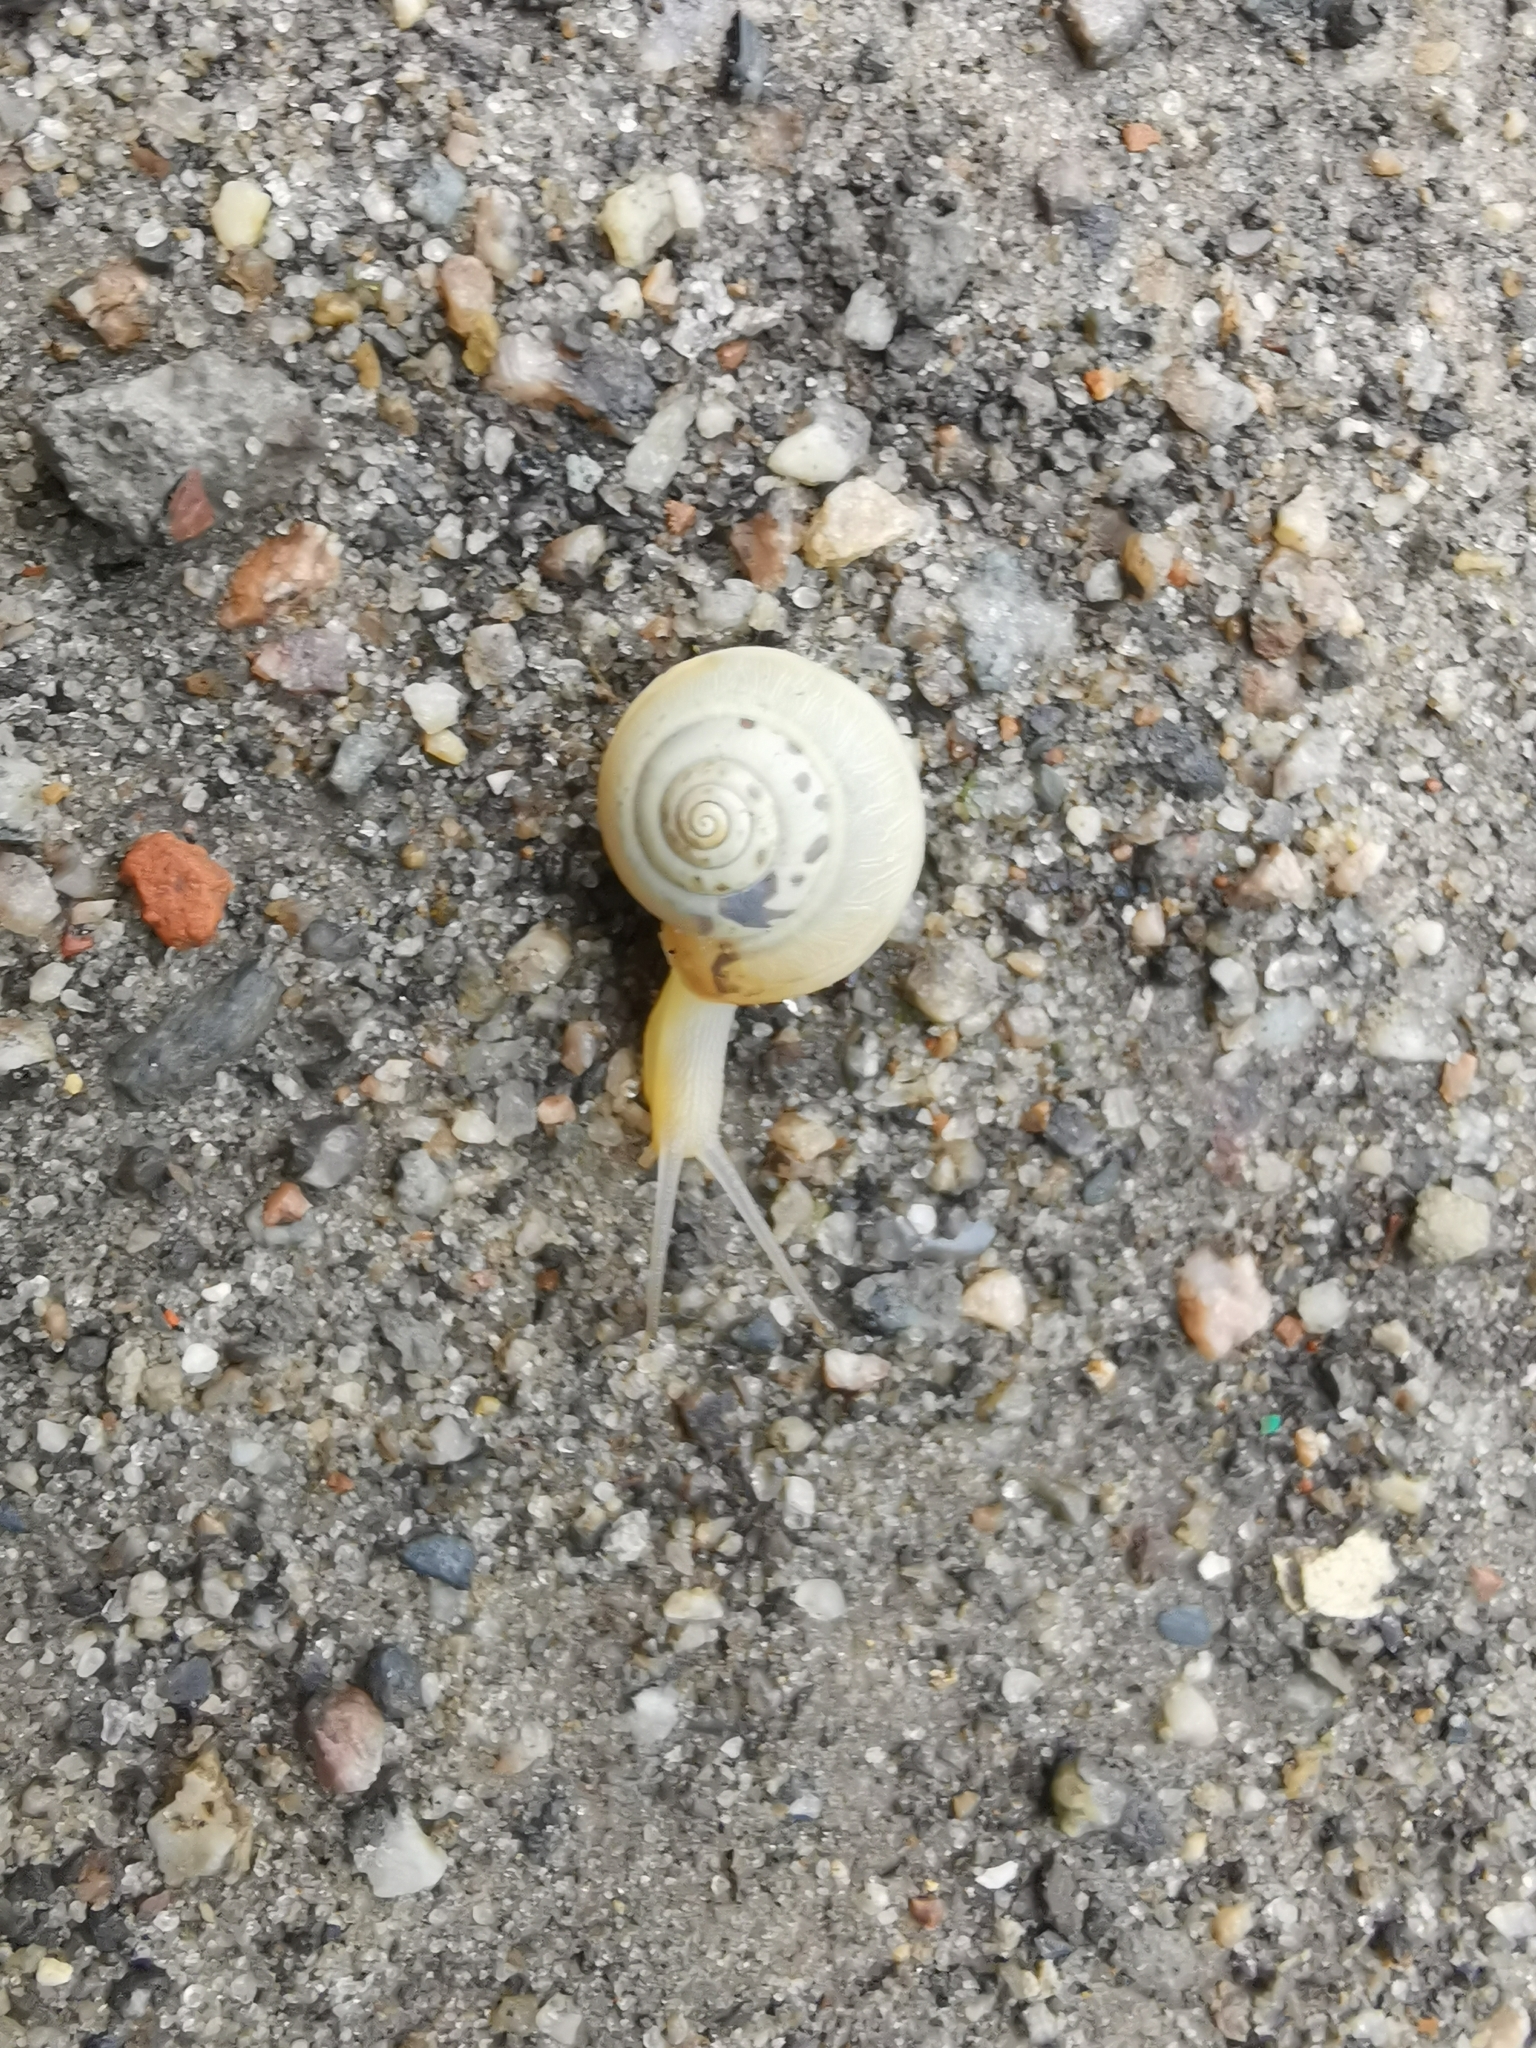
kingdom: Animalia
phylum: Mollusca
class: Gastropoda
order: Stylommatophora
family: Hygromiidae
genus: Monacha
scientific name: Monacha cartusiana
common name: Carthusian snail
